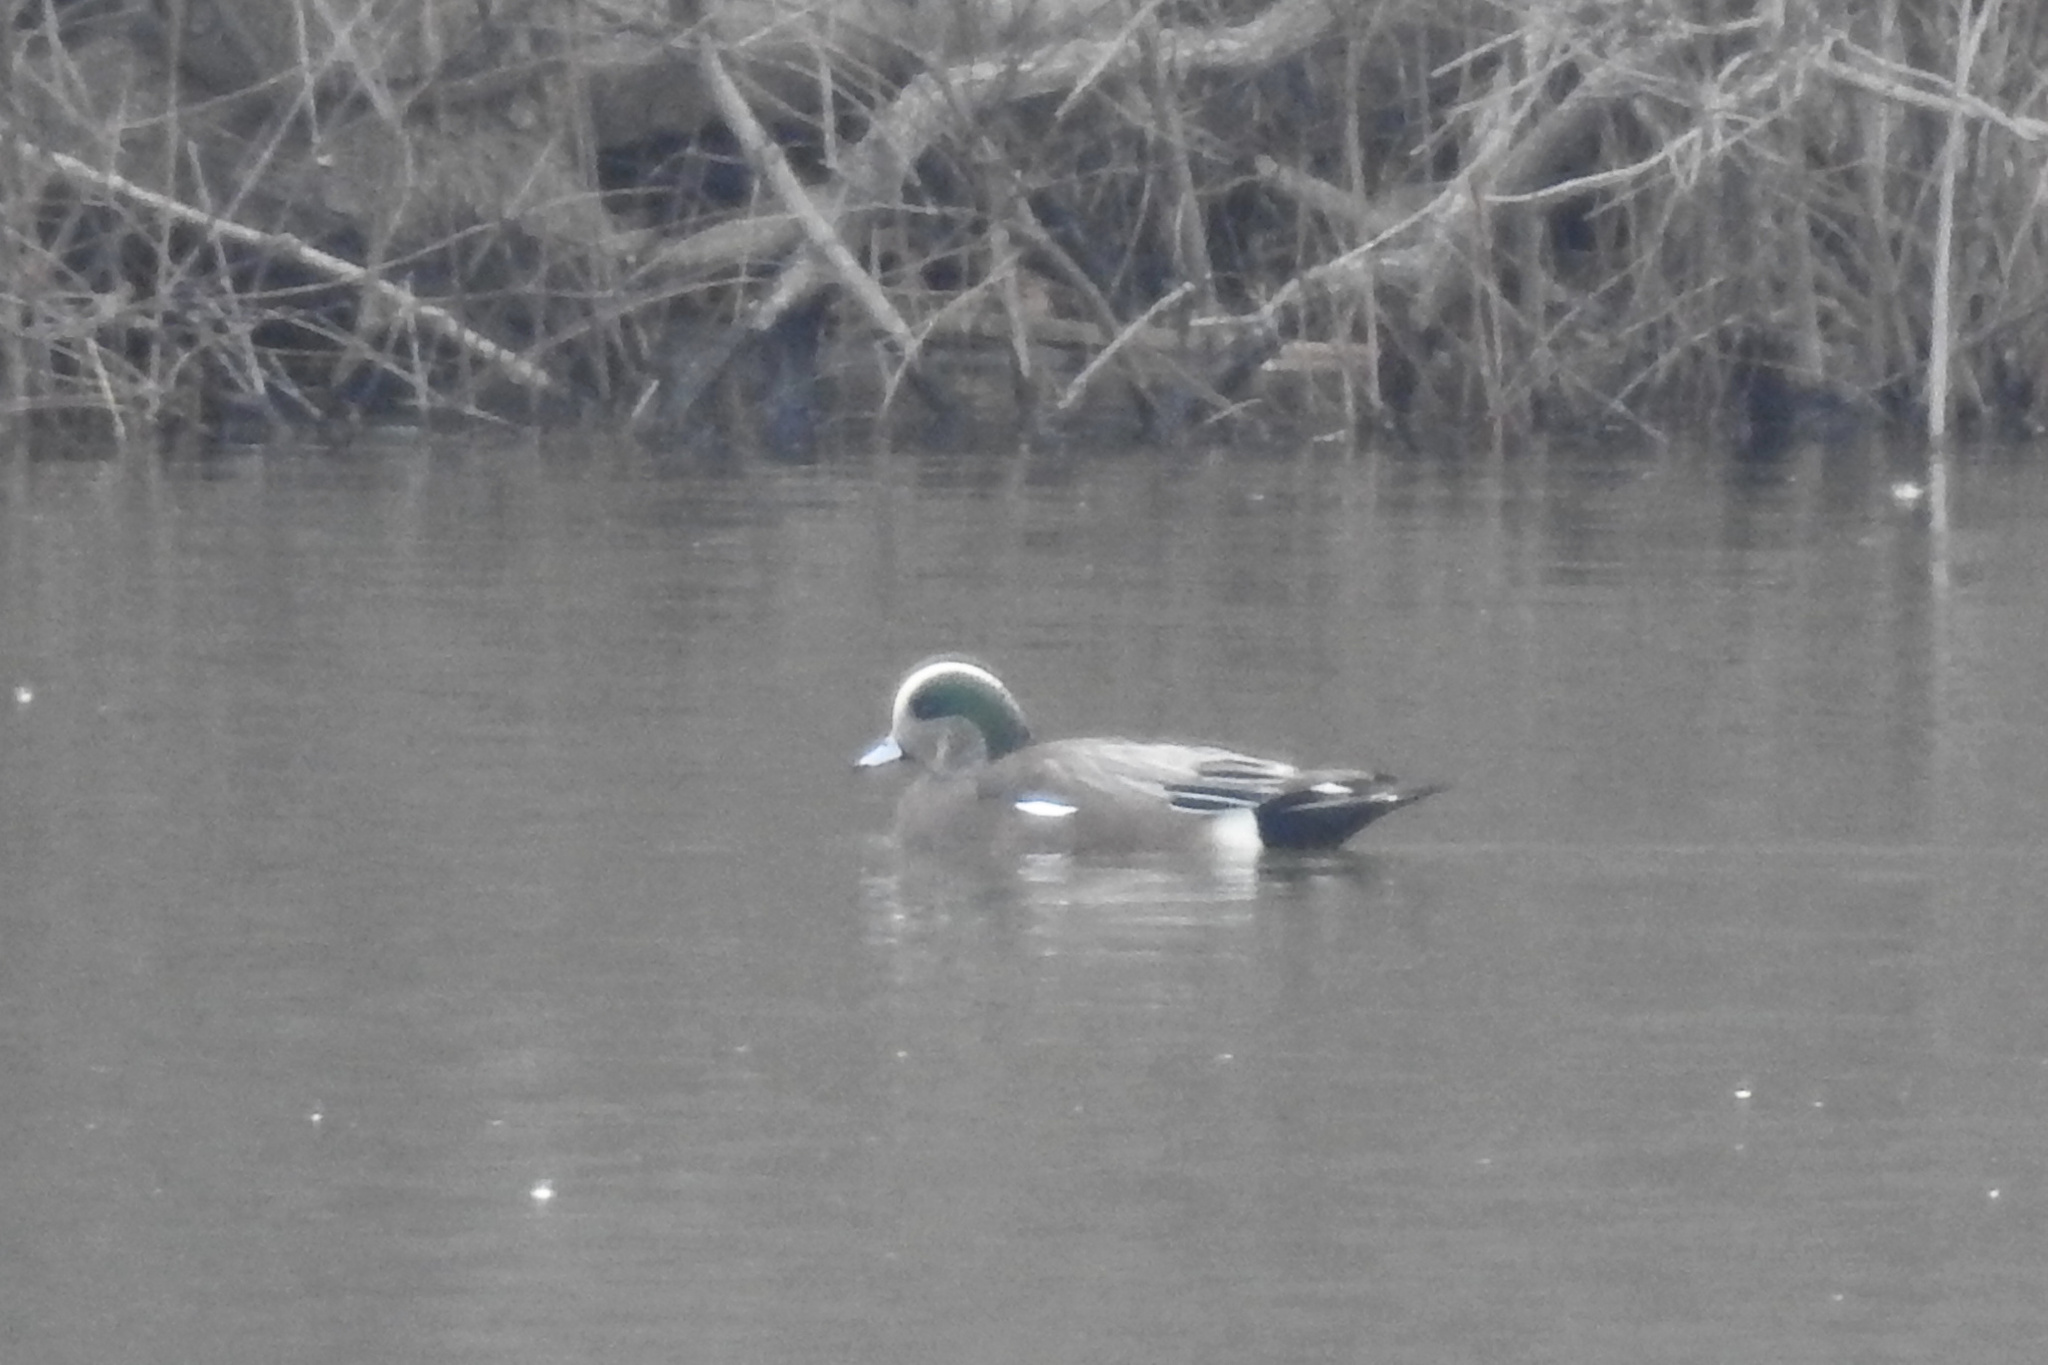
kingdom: Animalia
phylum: Chordata
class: Aves
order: Anseriformes
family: Anatidae
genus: Mareca
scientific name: Mareca americana
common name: American wigeon
